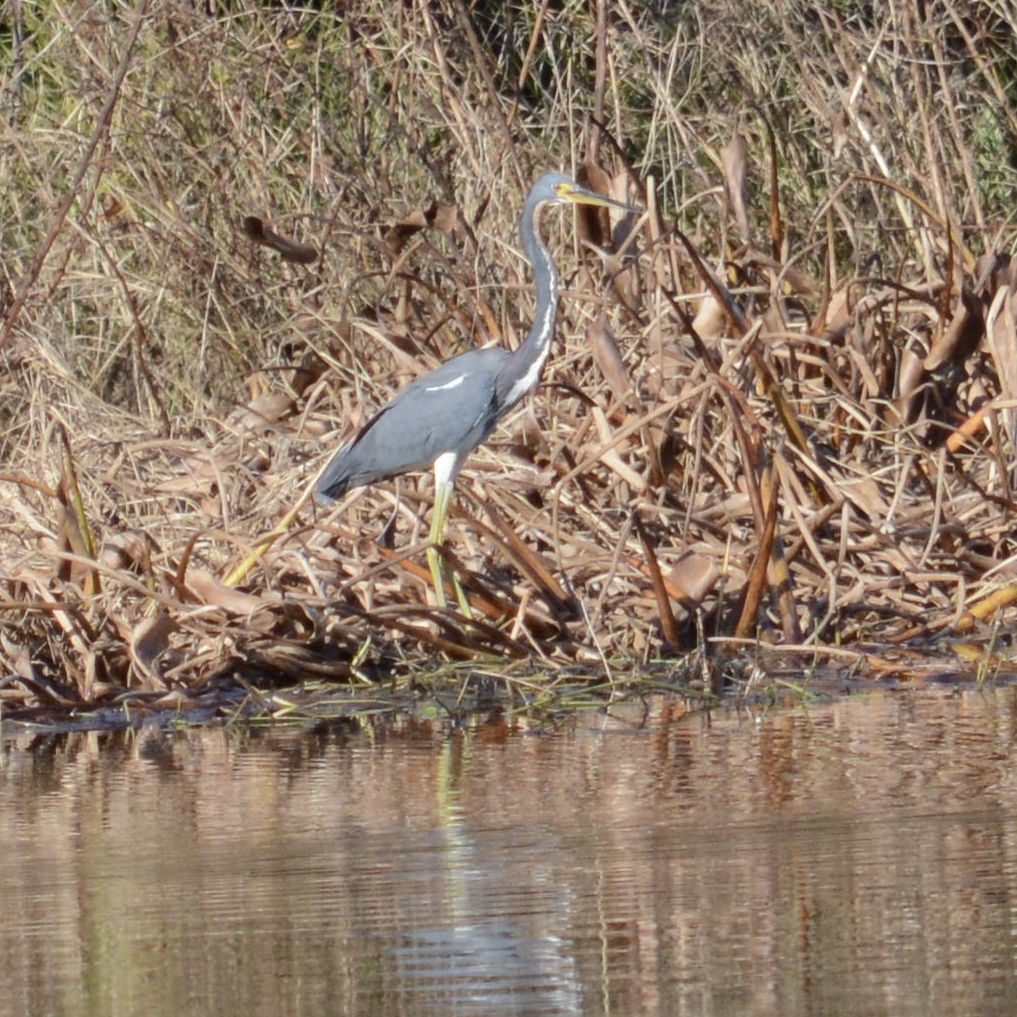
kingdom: Animalia
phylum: Chordata
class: Aves
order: Pelecaniformes
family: Ardeidae
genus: Egretta
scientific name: Egretta tricolor
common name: Tricolored heron
